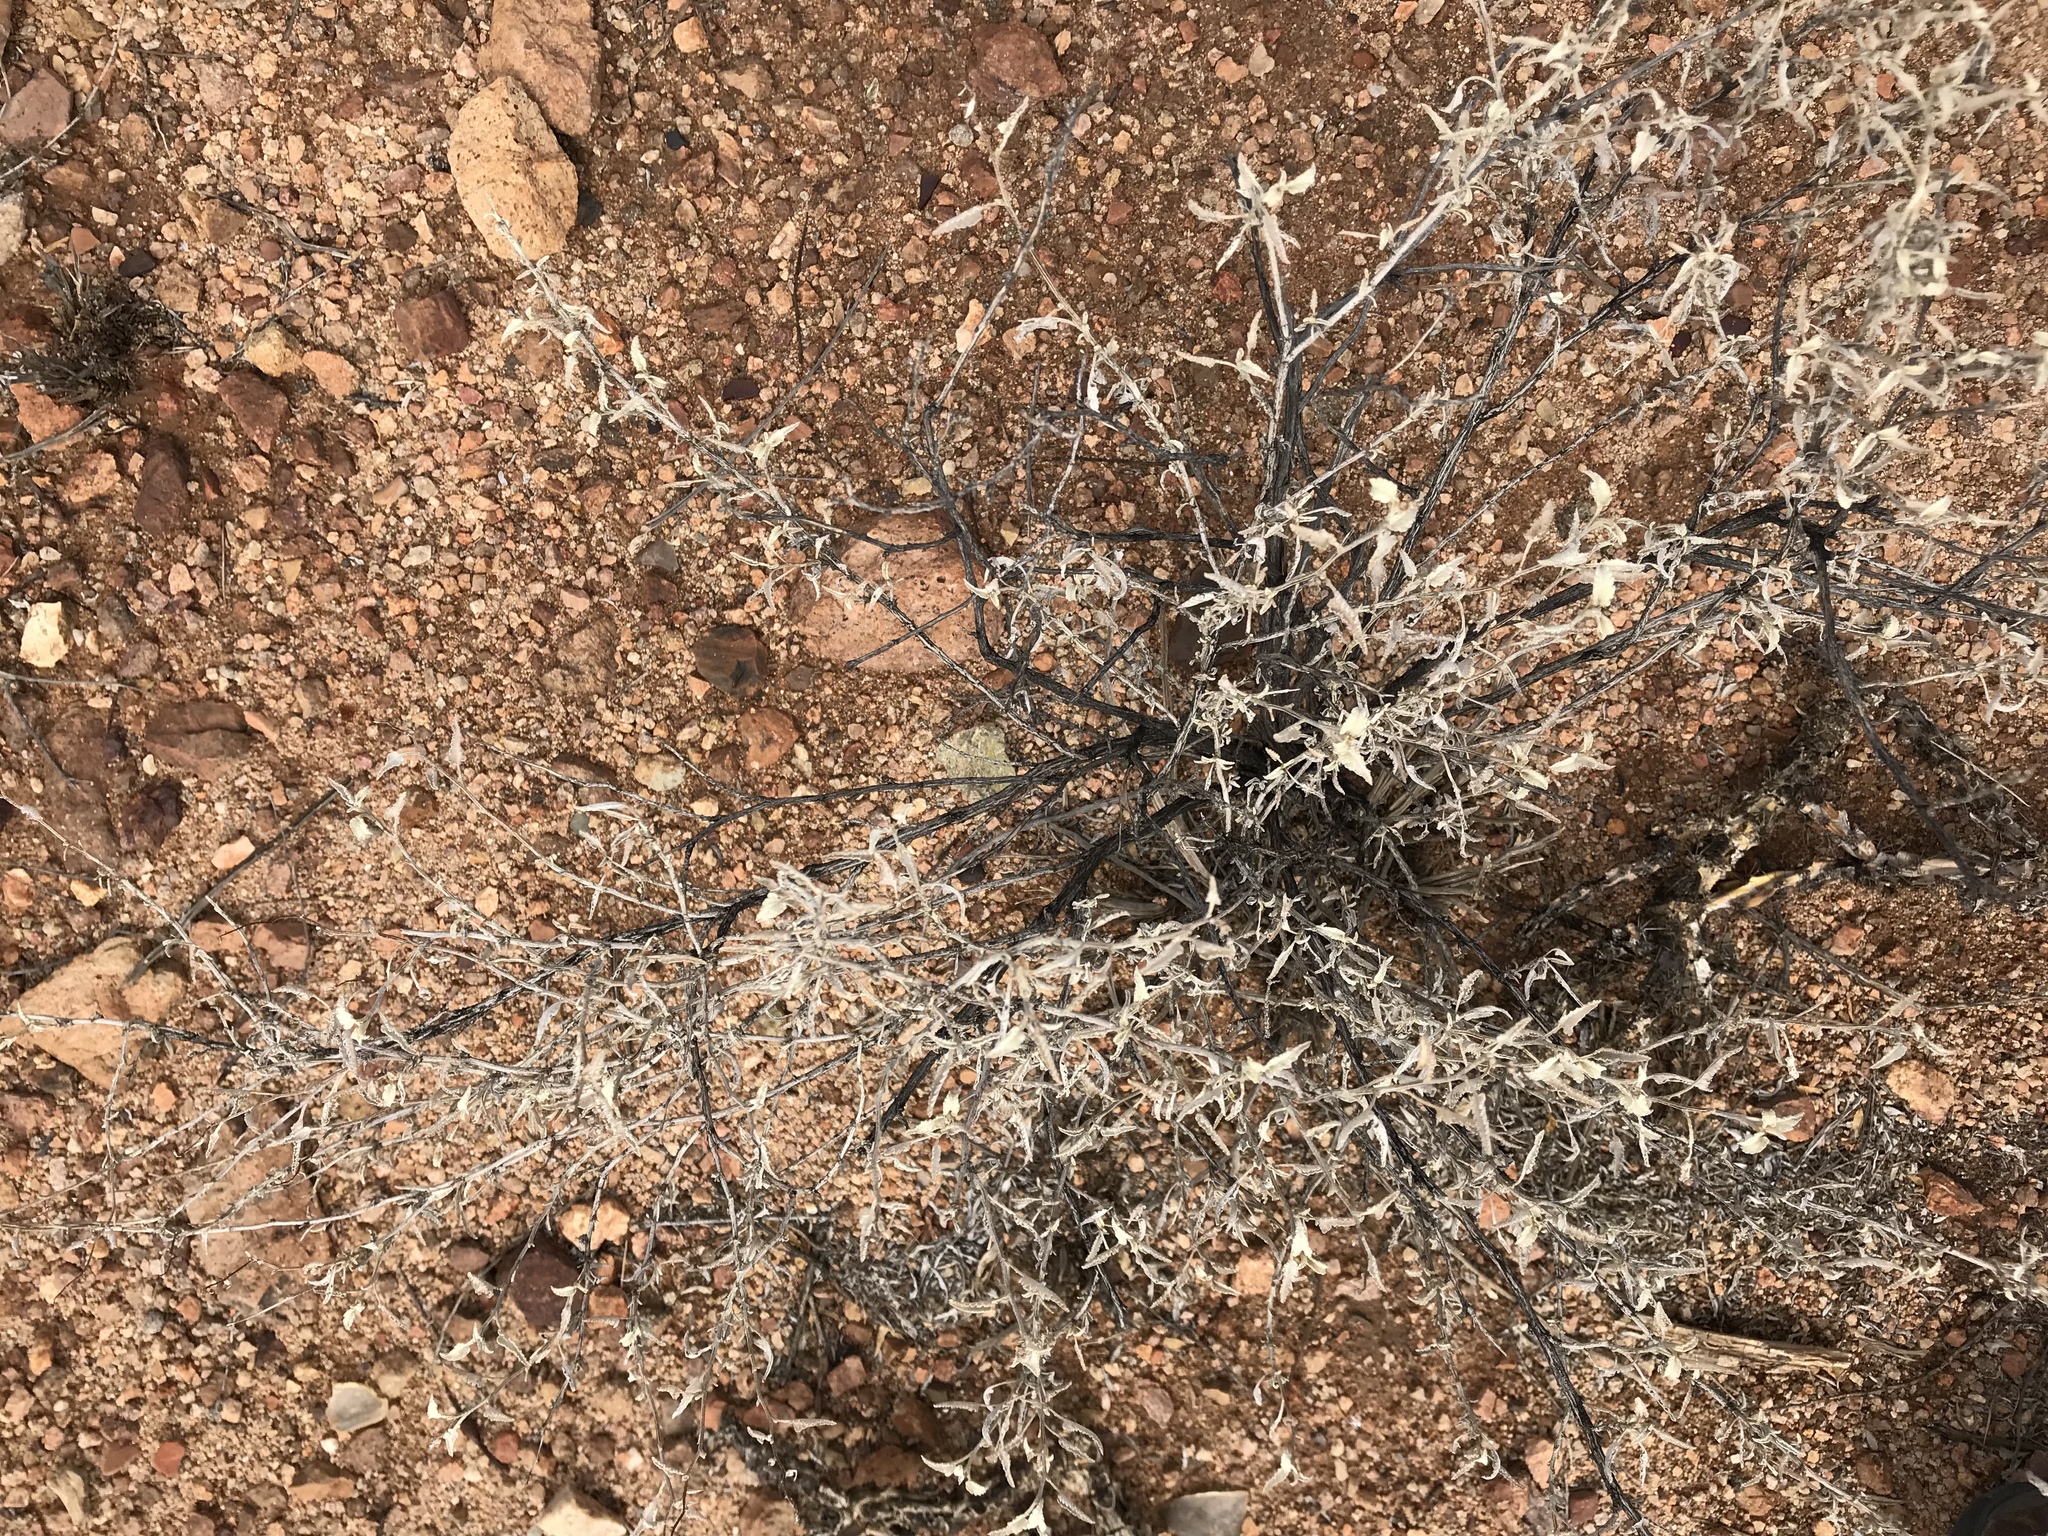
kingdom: Plantae
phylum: Tracheophyta
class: Magnoliopsida
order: Asterales
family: Asteraceae
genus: Ambrosia
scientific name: Ambrosia deltoidea
